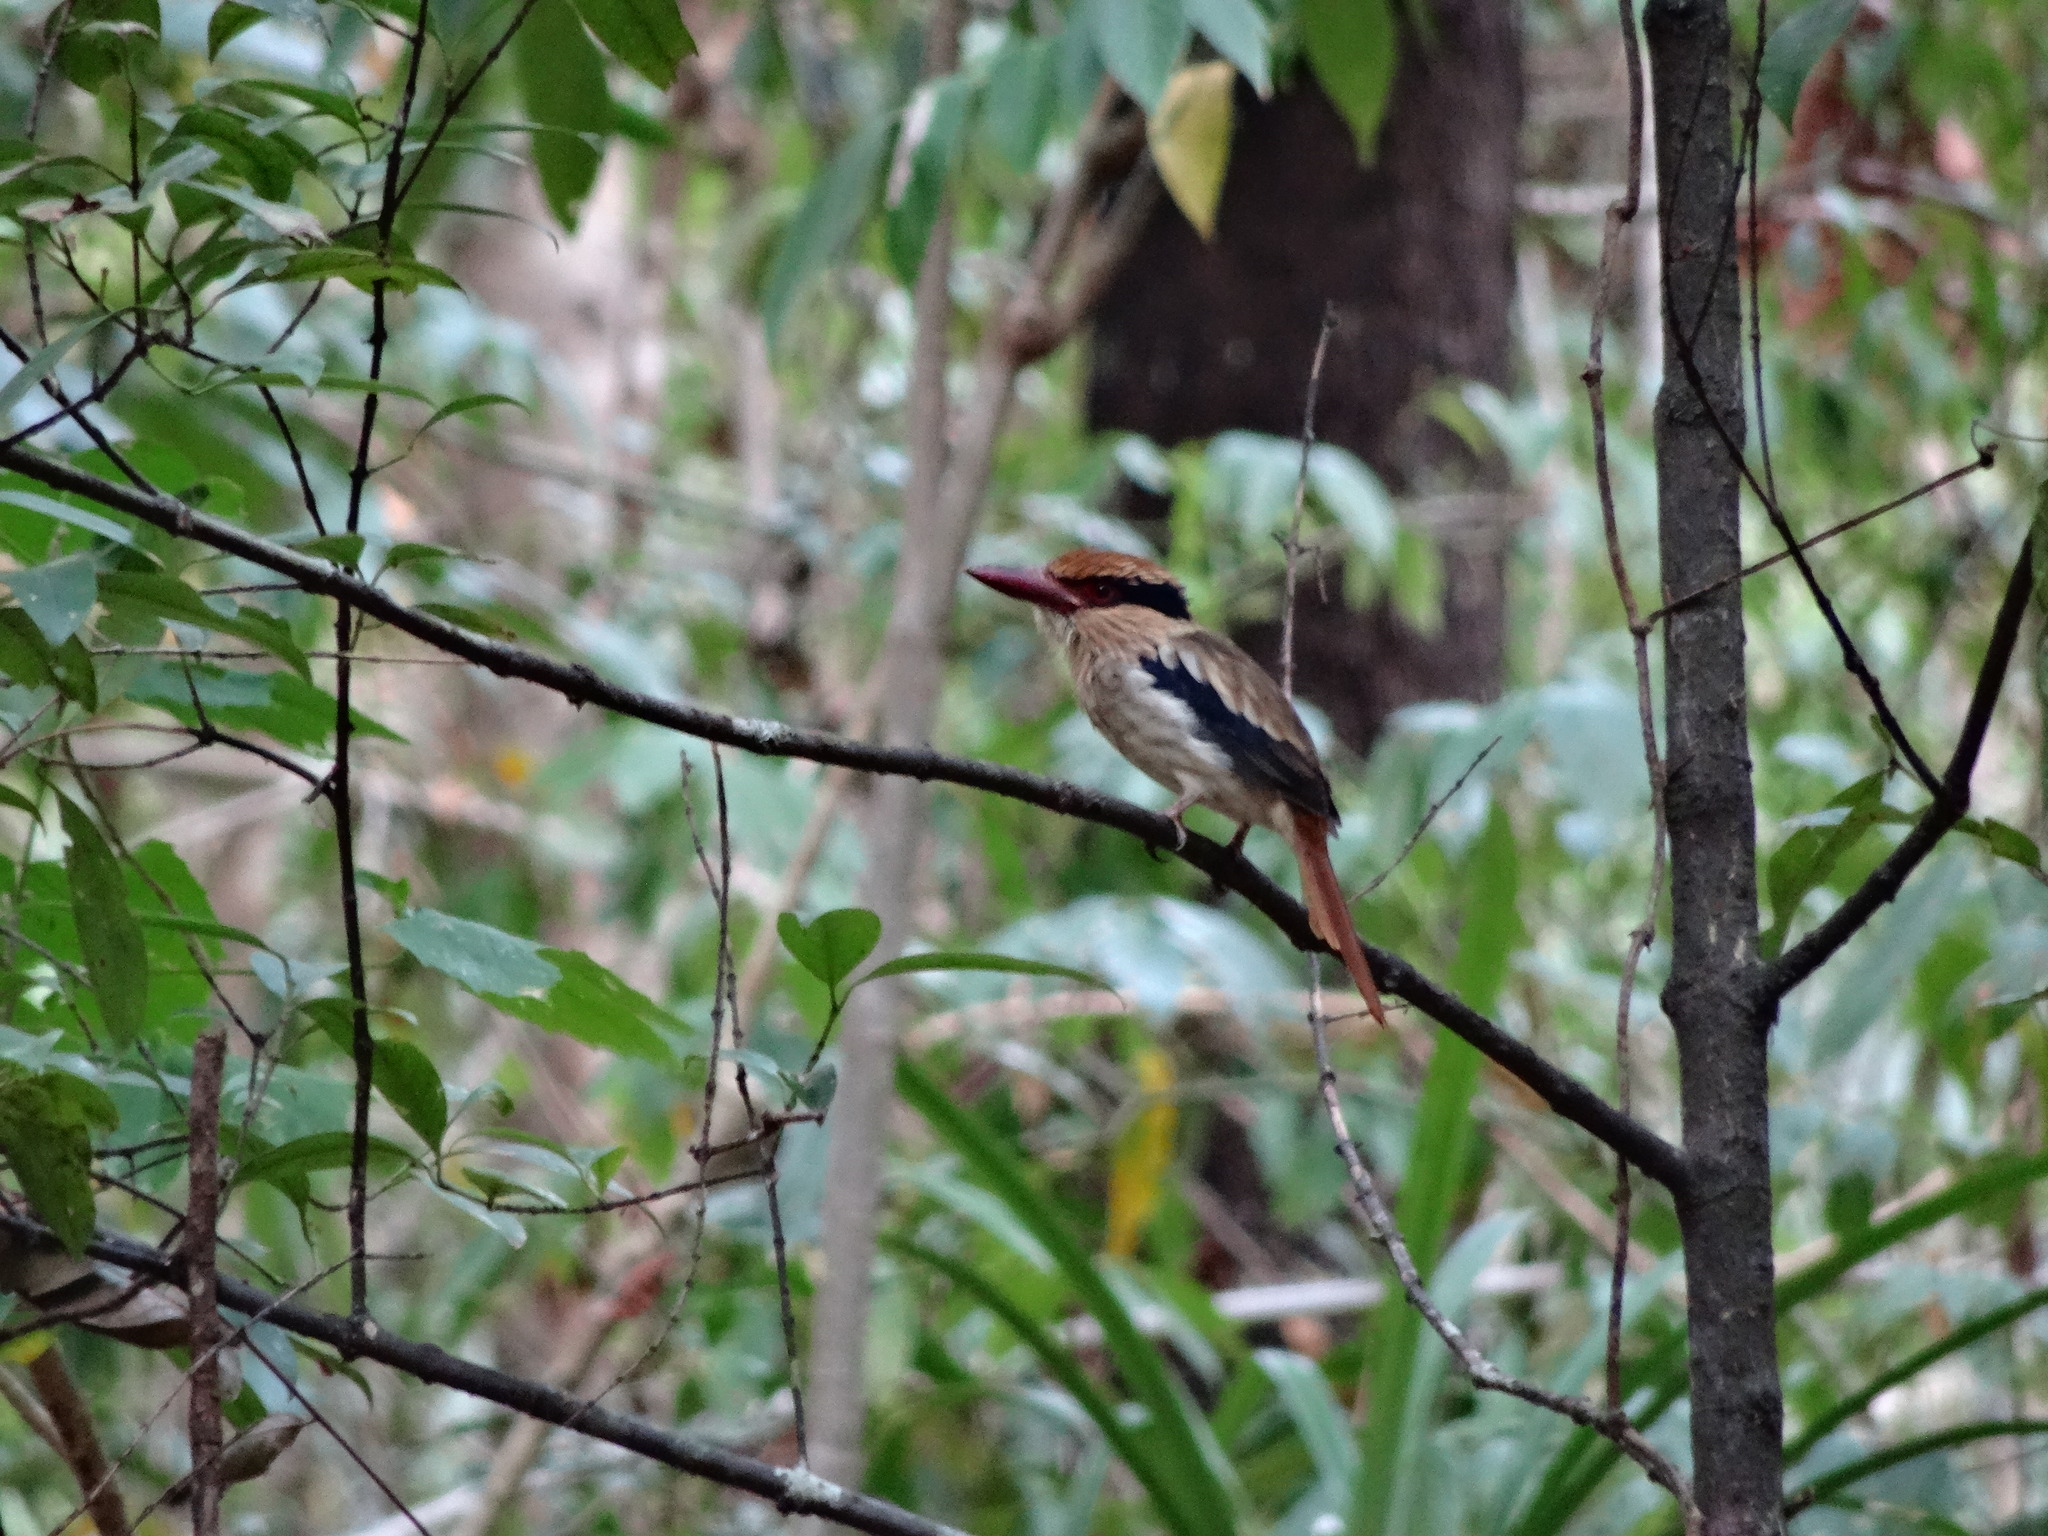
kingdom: Animalia
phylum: Chordata
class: Aves
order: Coraciiformes
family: Alcedinidae
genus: Cittura
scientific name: Cittura cyanotis
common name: Lilac kingfisher
